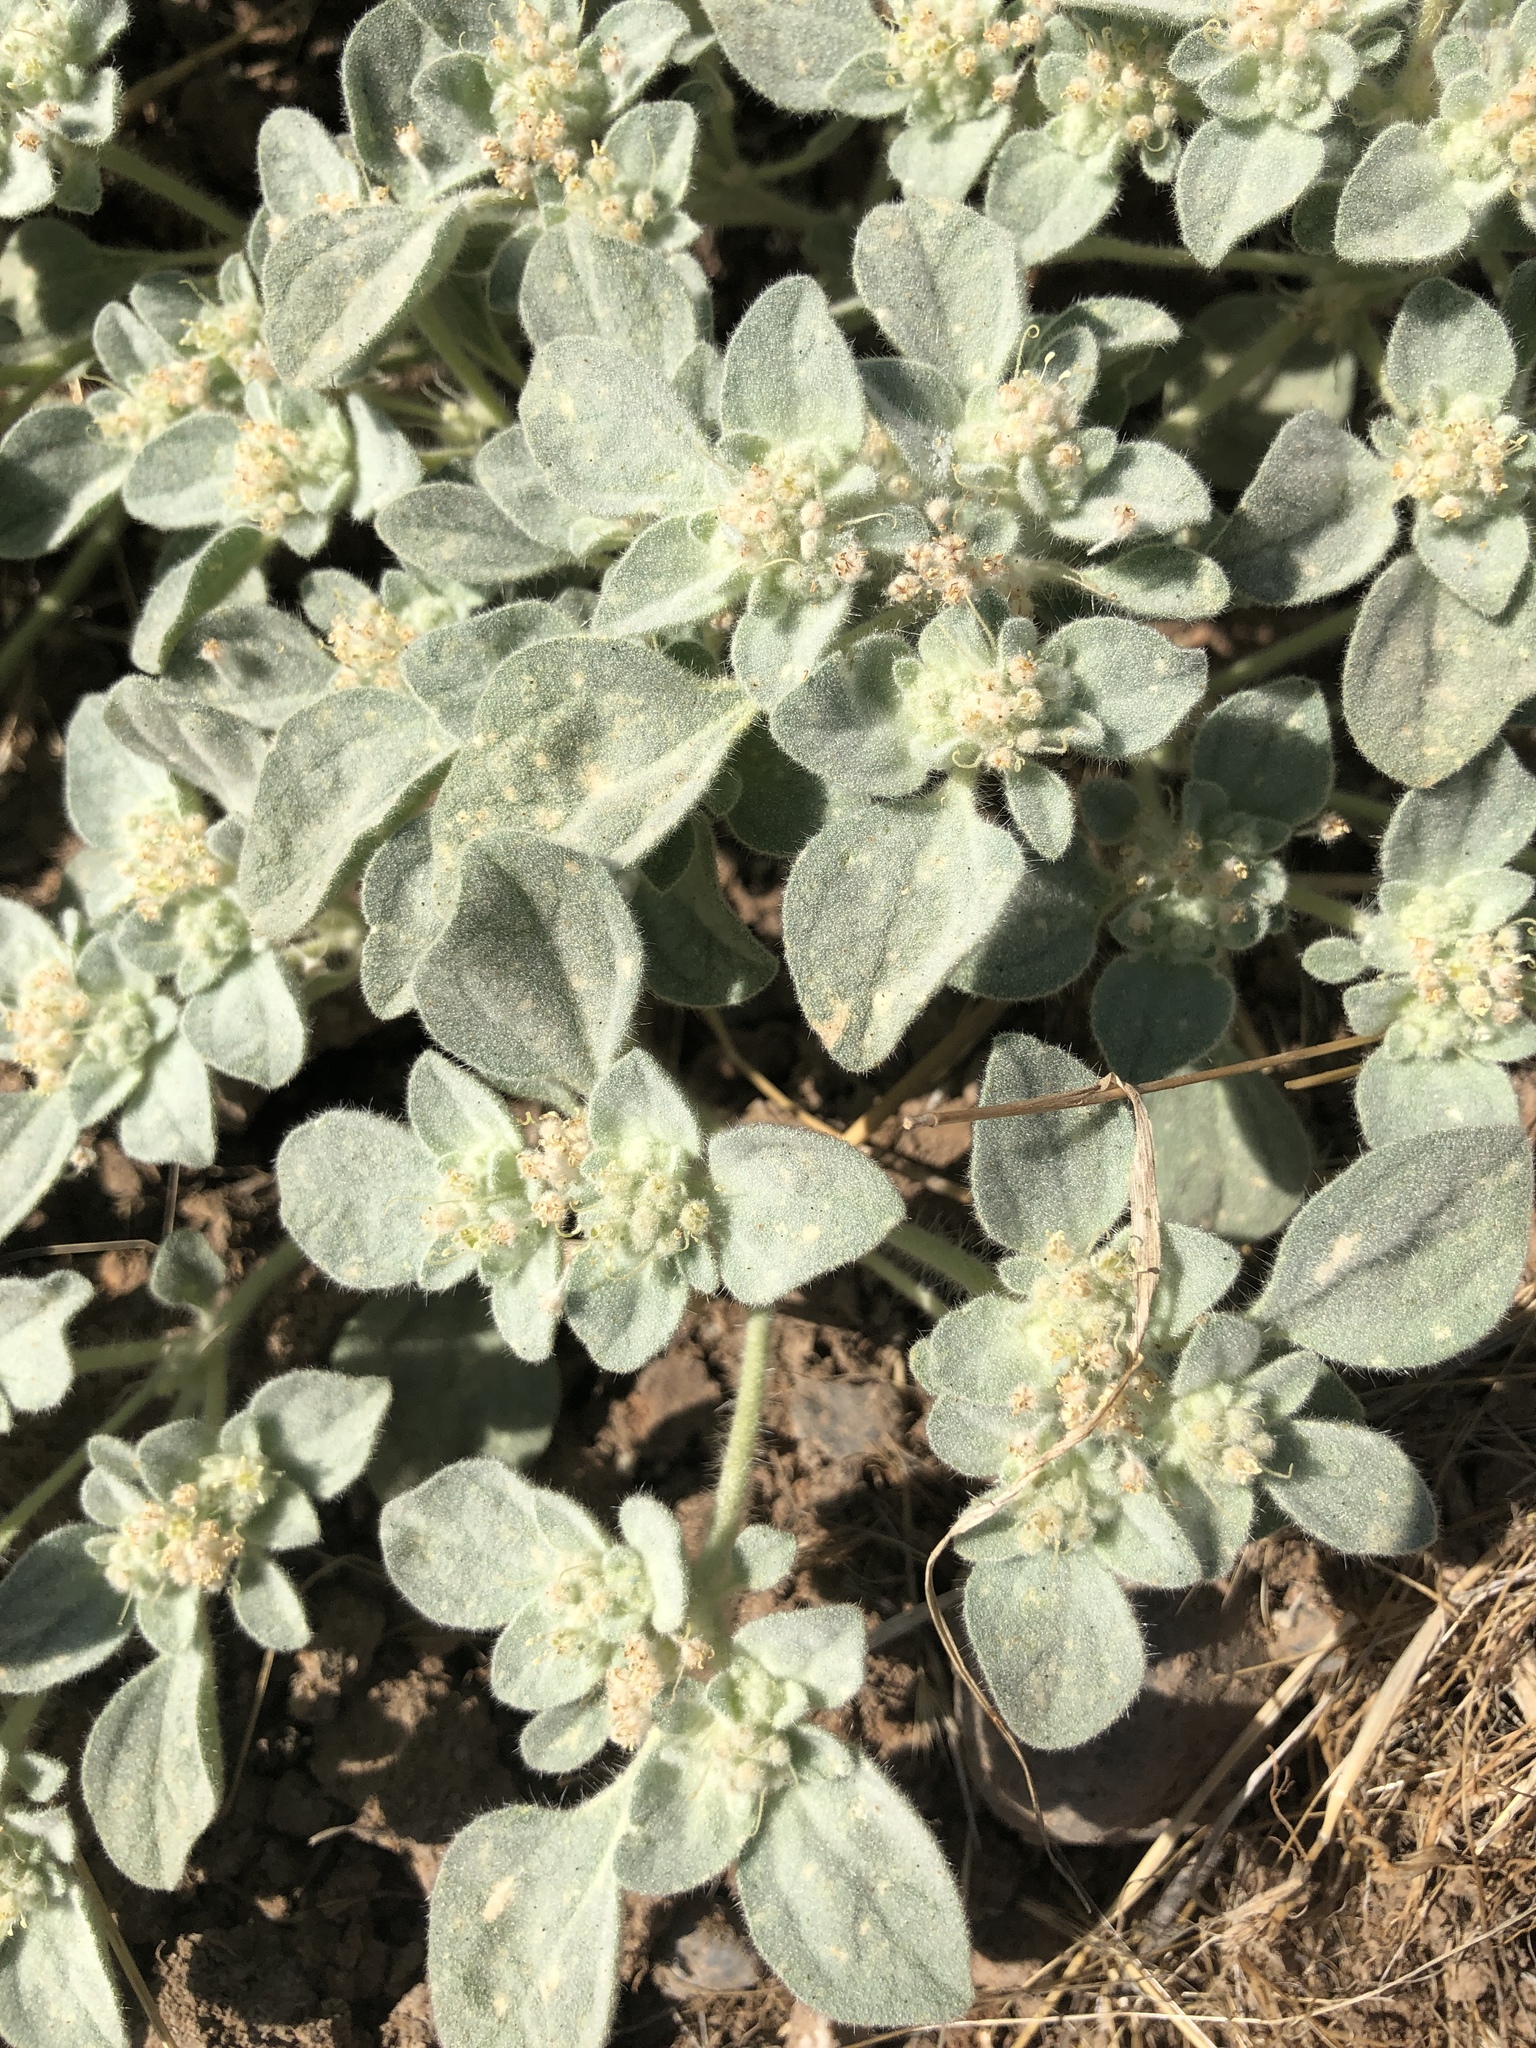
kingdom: Plantae
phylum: Tracheophyta
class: Magnoliopsida
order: Malpighiales
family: Euphorbiaceae
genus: Croton
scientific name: Croton setiger
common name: Dove weed
